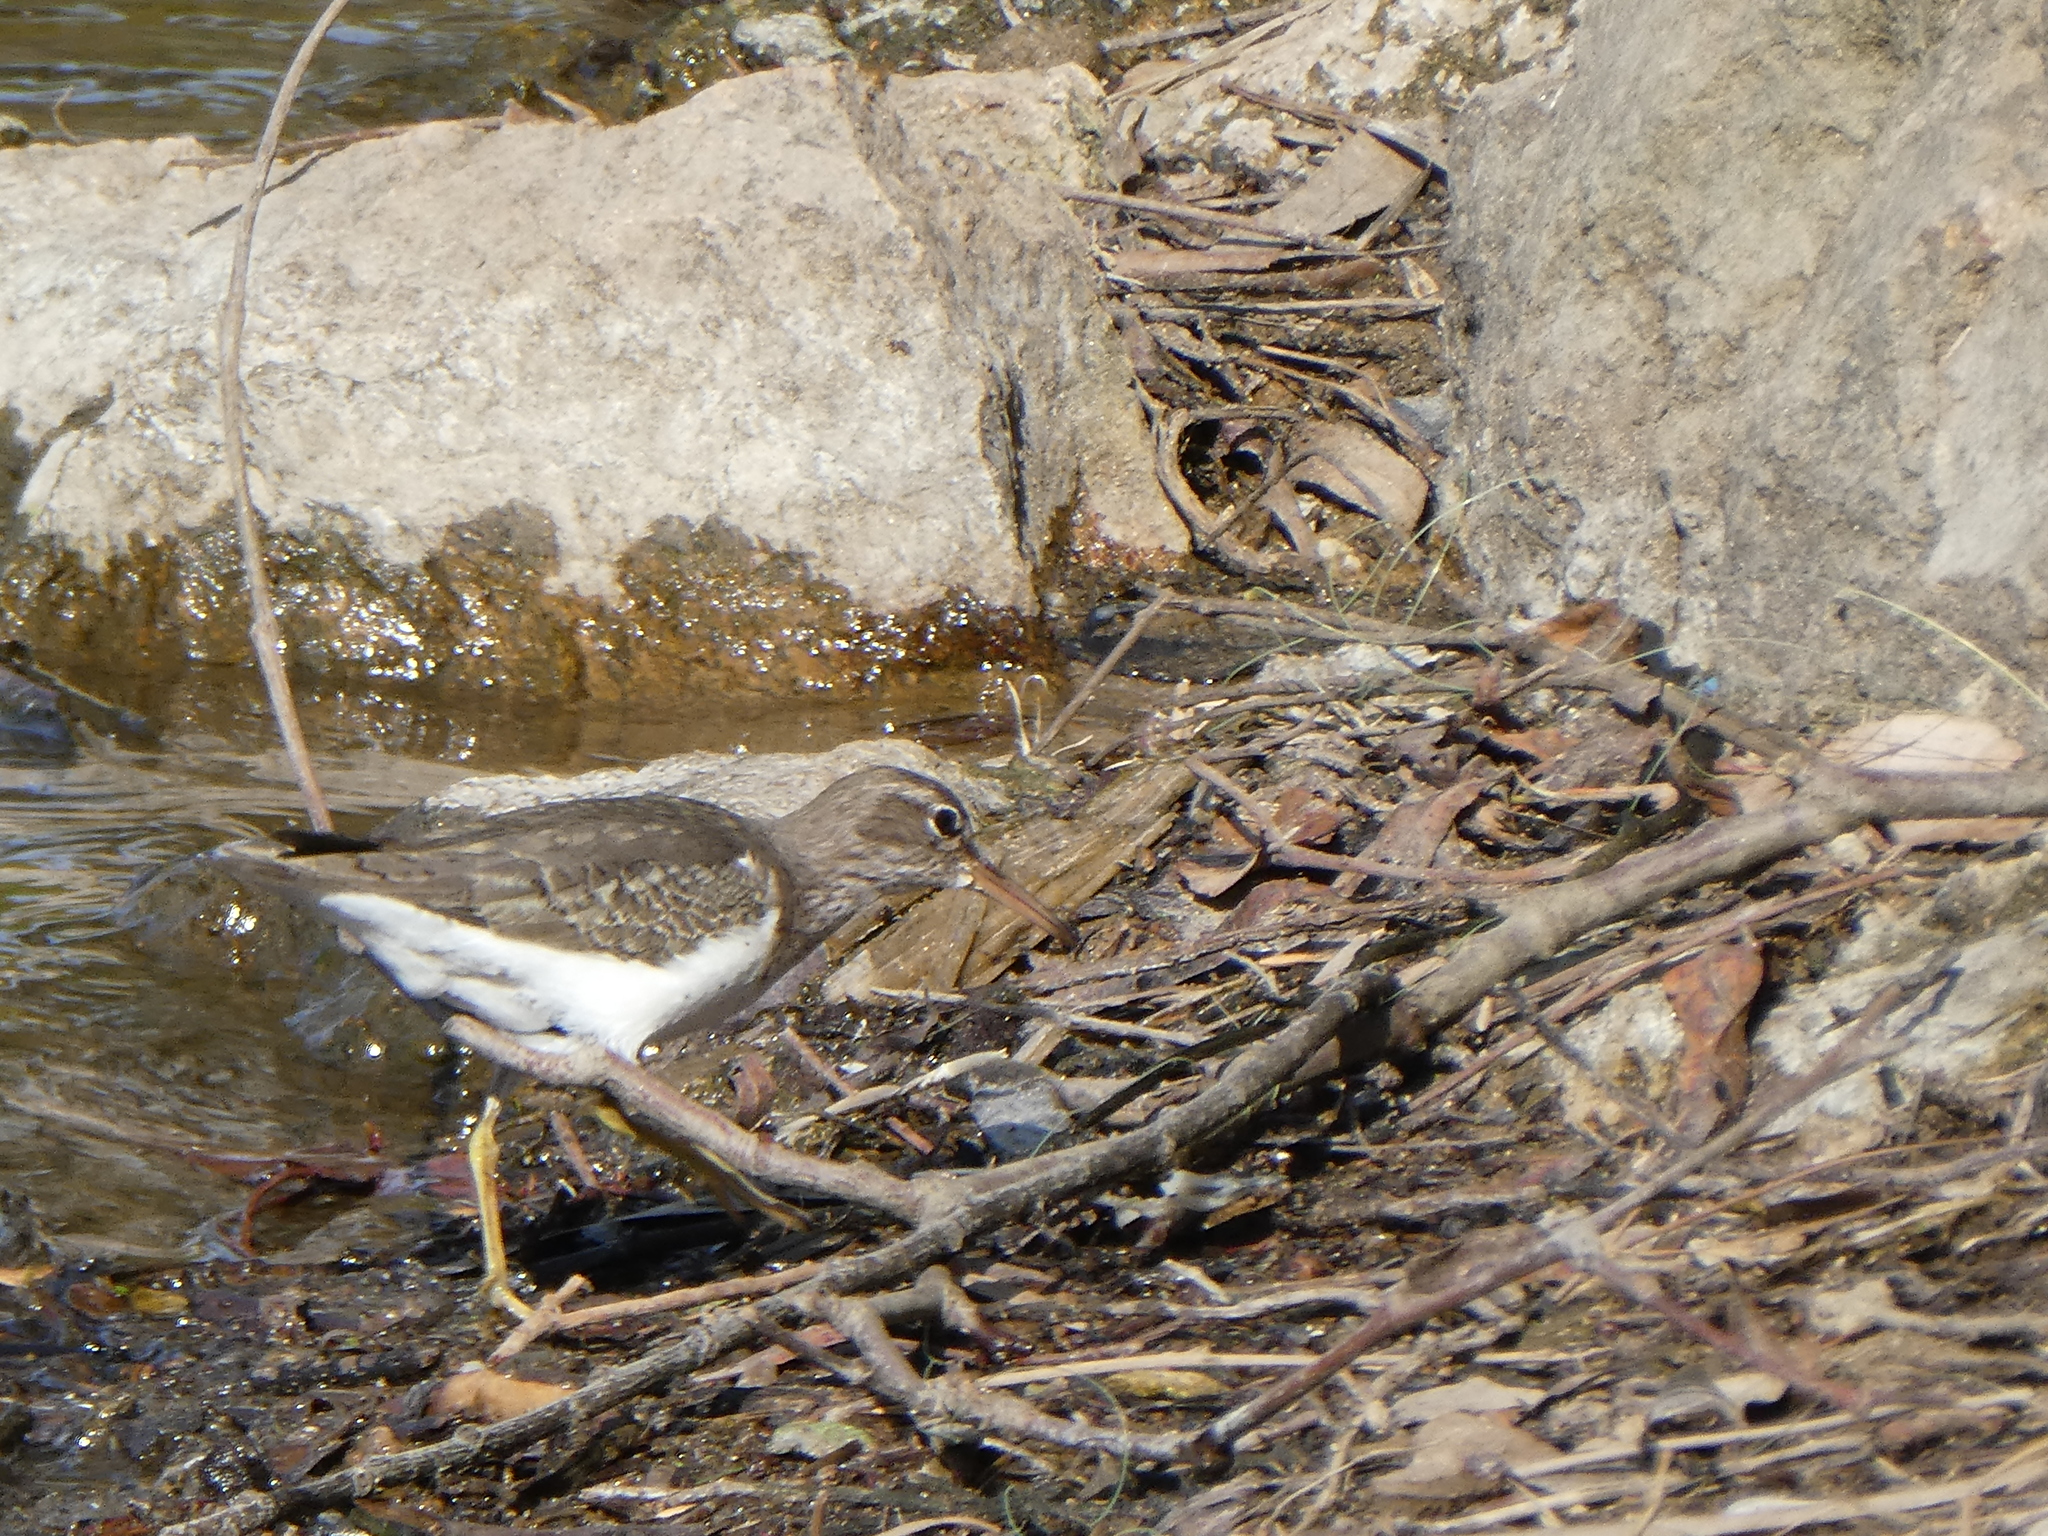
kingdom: Animalia
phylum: Chordata
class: Aves
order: Charadriiformes
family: Scolopacidae
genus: Actitis
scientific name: Actitis macularius
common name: Spotted sandpiper
